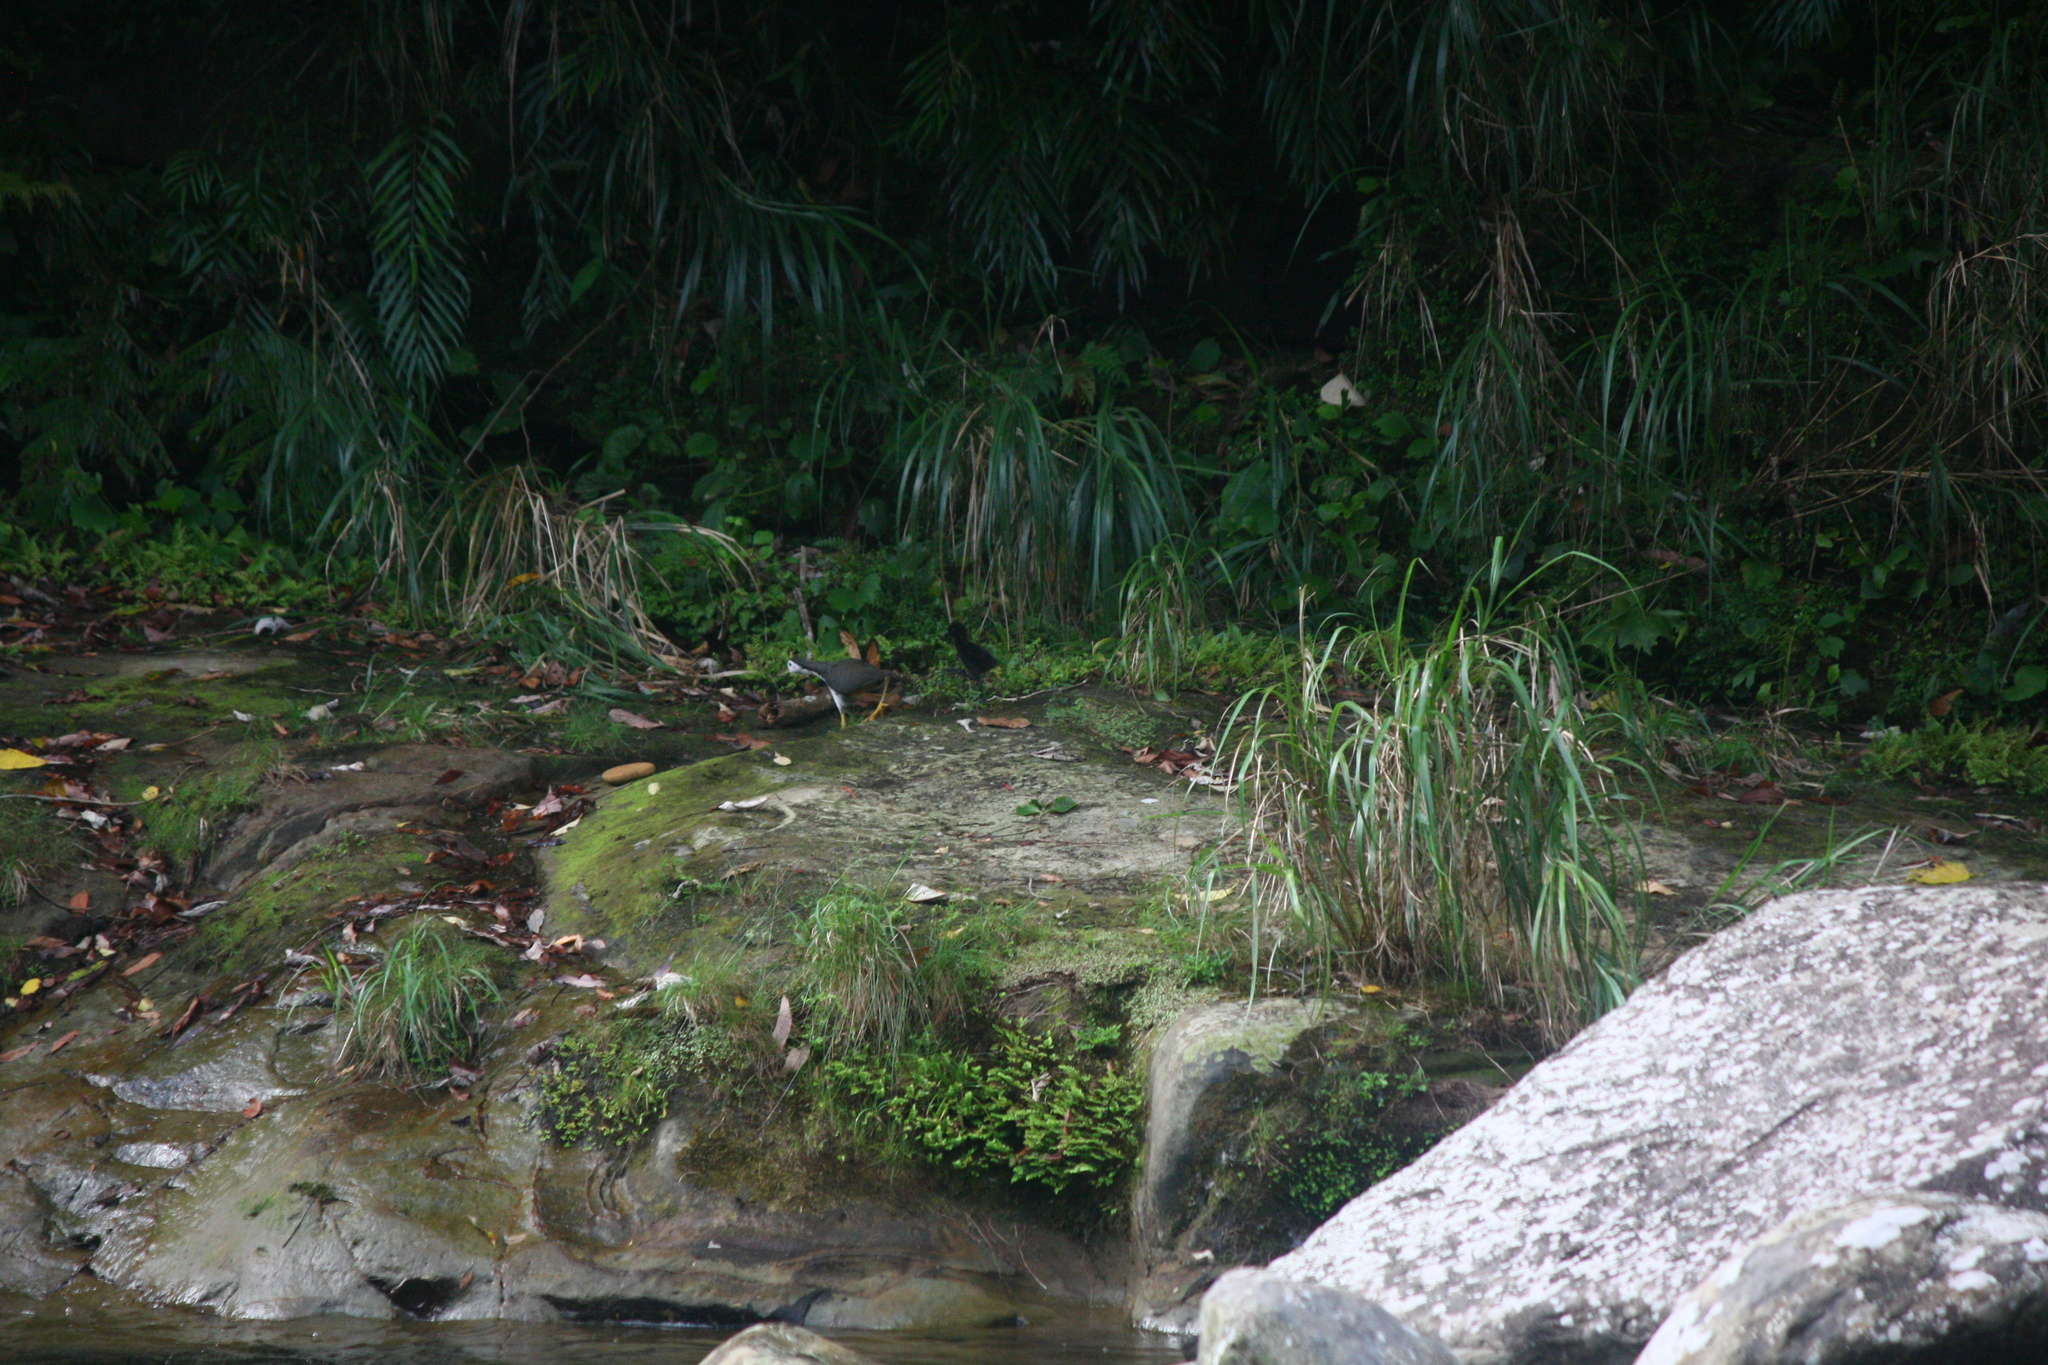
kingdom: Animalia
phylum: Chordata
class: Aves
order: Gruiformes
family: Rallidae
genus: Amaurornis
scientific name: Amaurornis phoenicurus
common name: White-breasted waterhen
